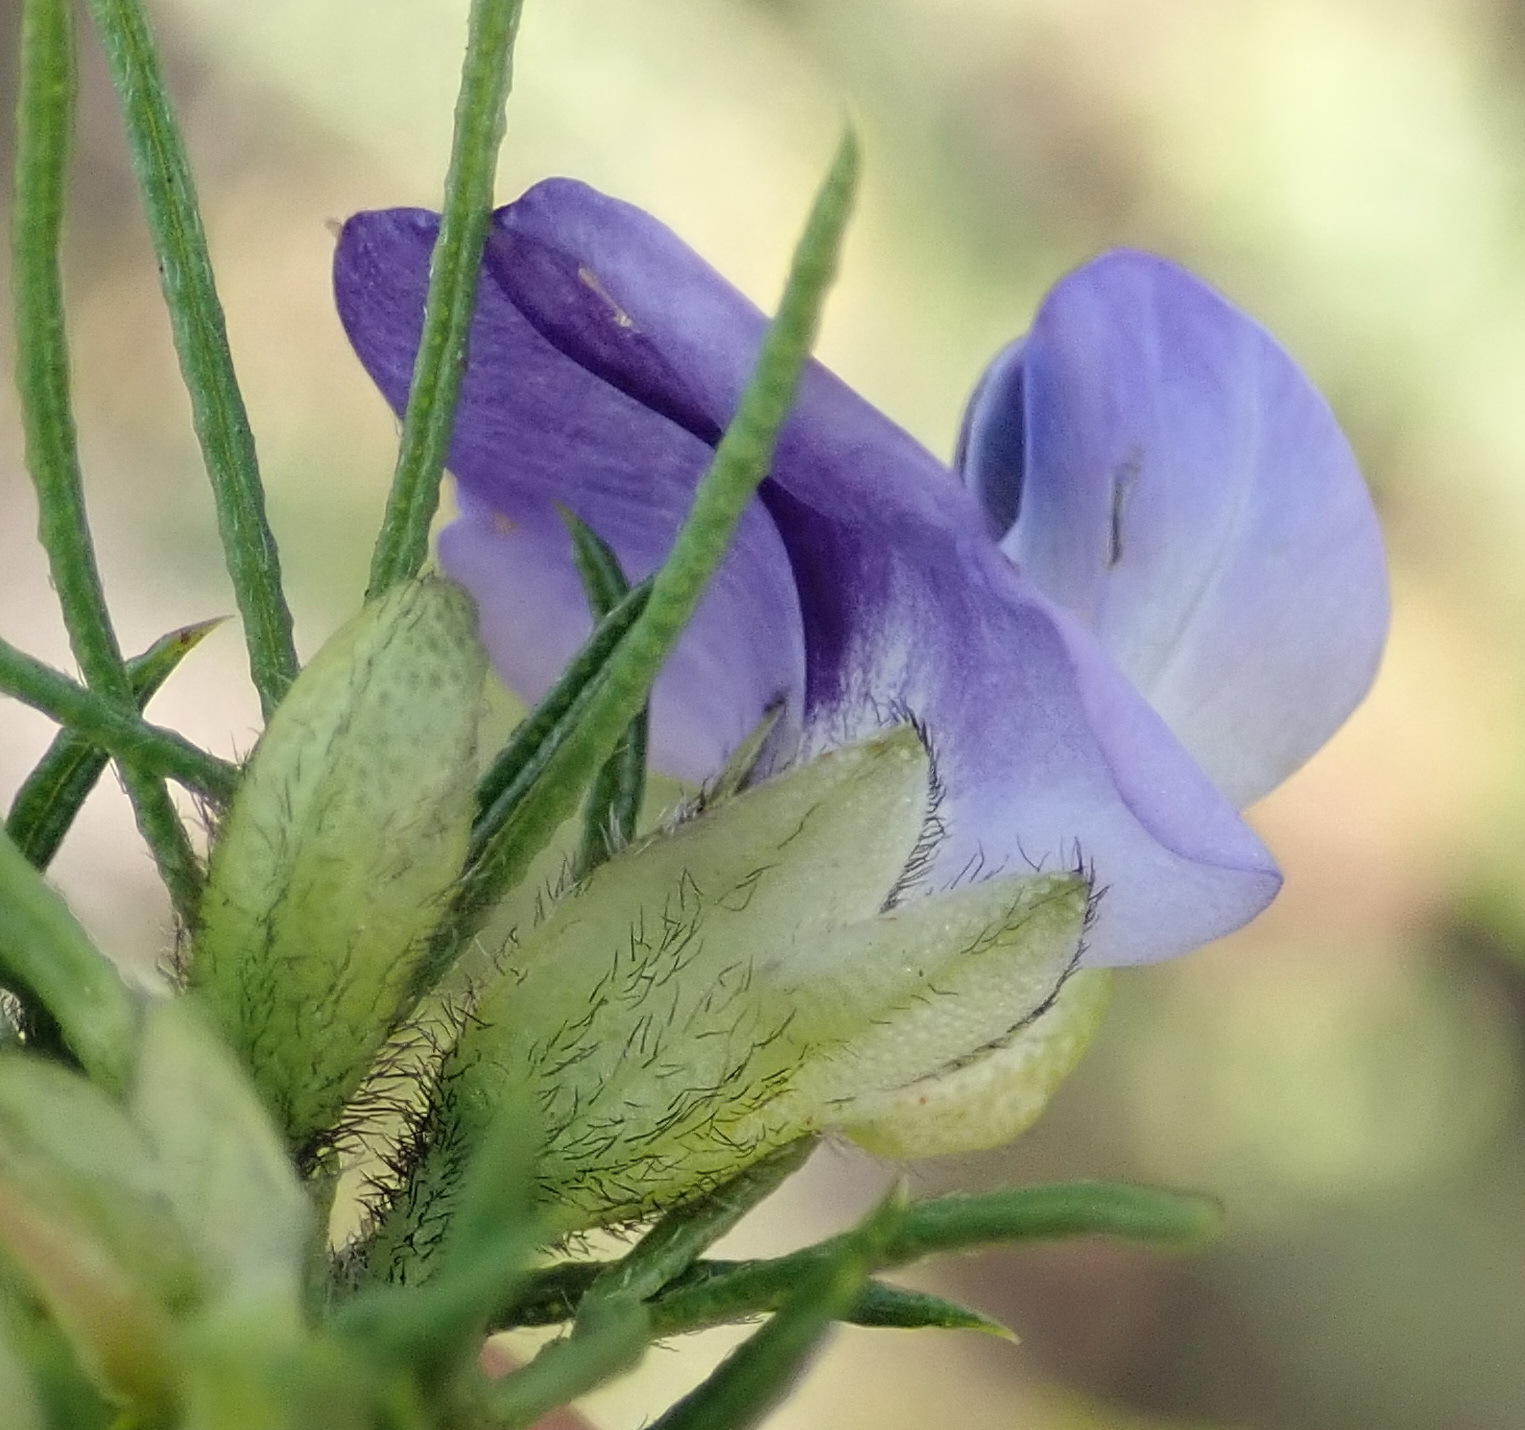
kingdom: Plantae
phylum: Tracheophyta
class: Magnoliopsida
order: Fabales
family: Fabaceae
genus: Psoralea
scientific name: Psoralea affinis
